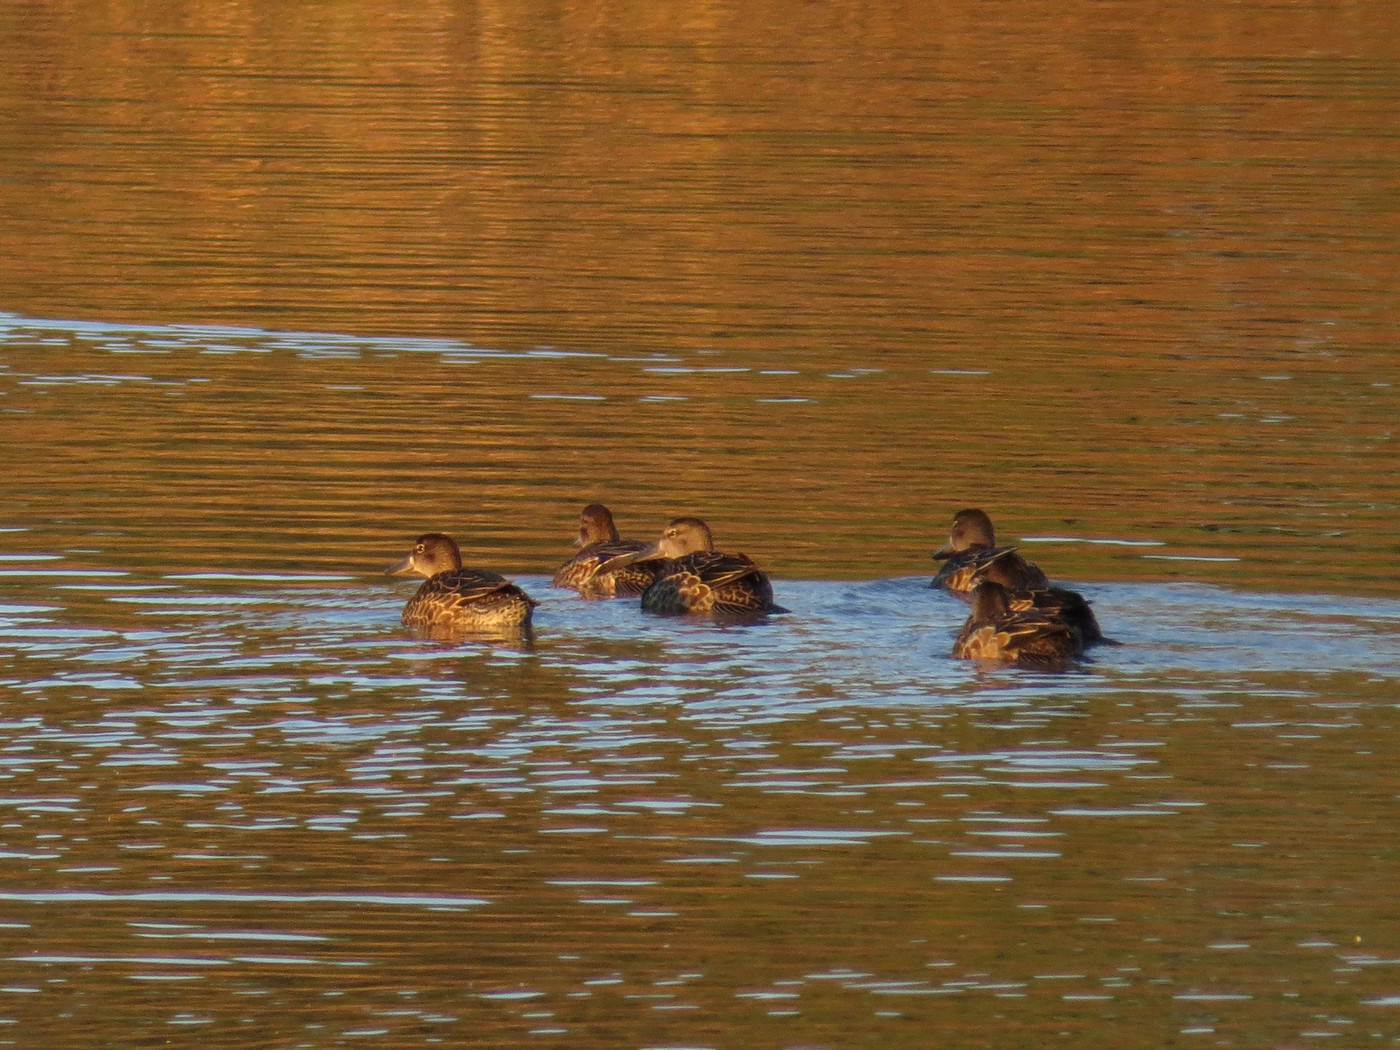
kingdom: Animalia
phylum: Chordata
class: Aves
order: Anseriformes
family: Anatidae
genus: Aythya
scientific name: Aythya collaris
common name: Ring-necked duck
